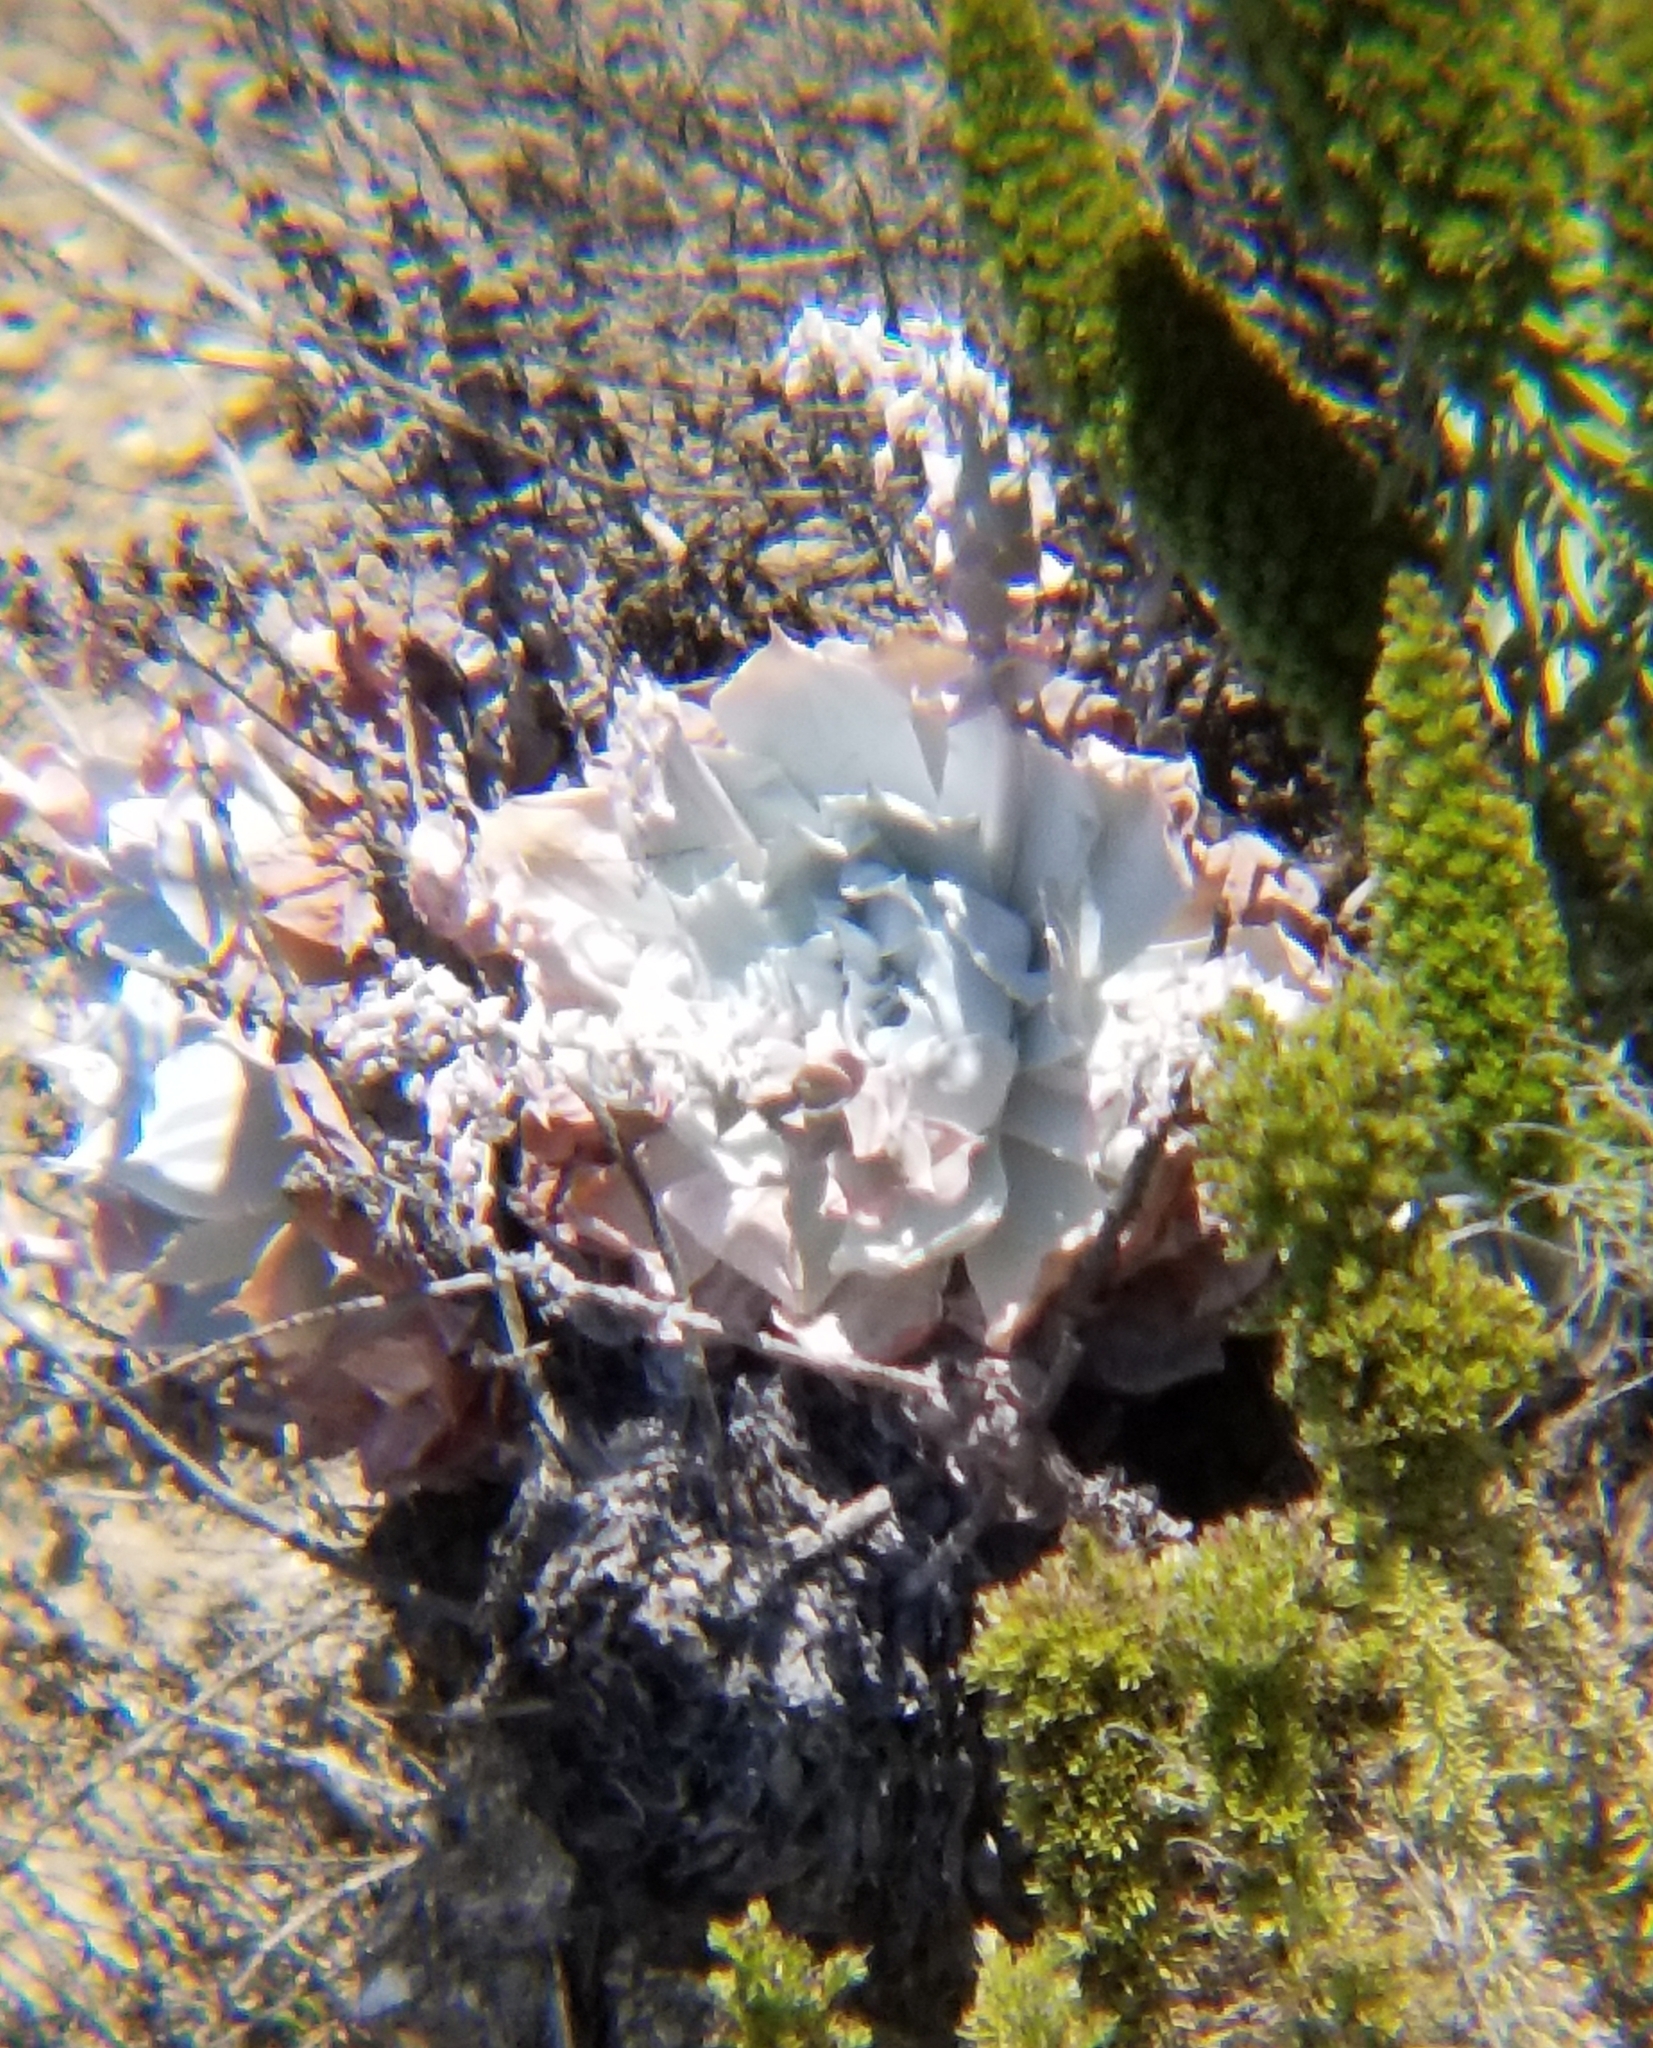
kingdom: Plantae
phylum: Tracheophyta
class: Magnoliopsida
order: Saxifragales
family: Crassulaceae
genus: Dudleya
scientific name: Dudleya pulverulenta
